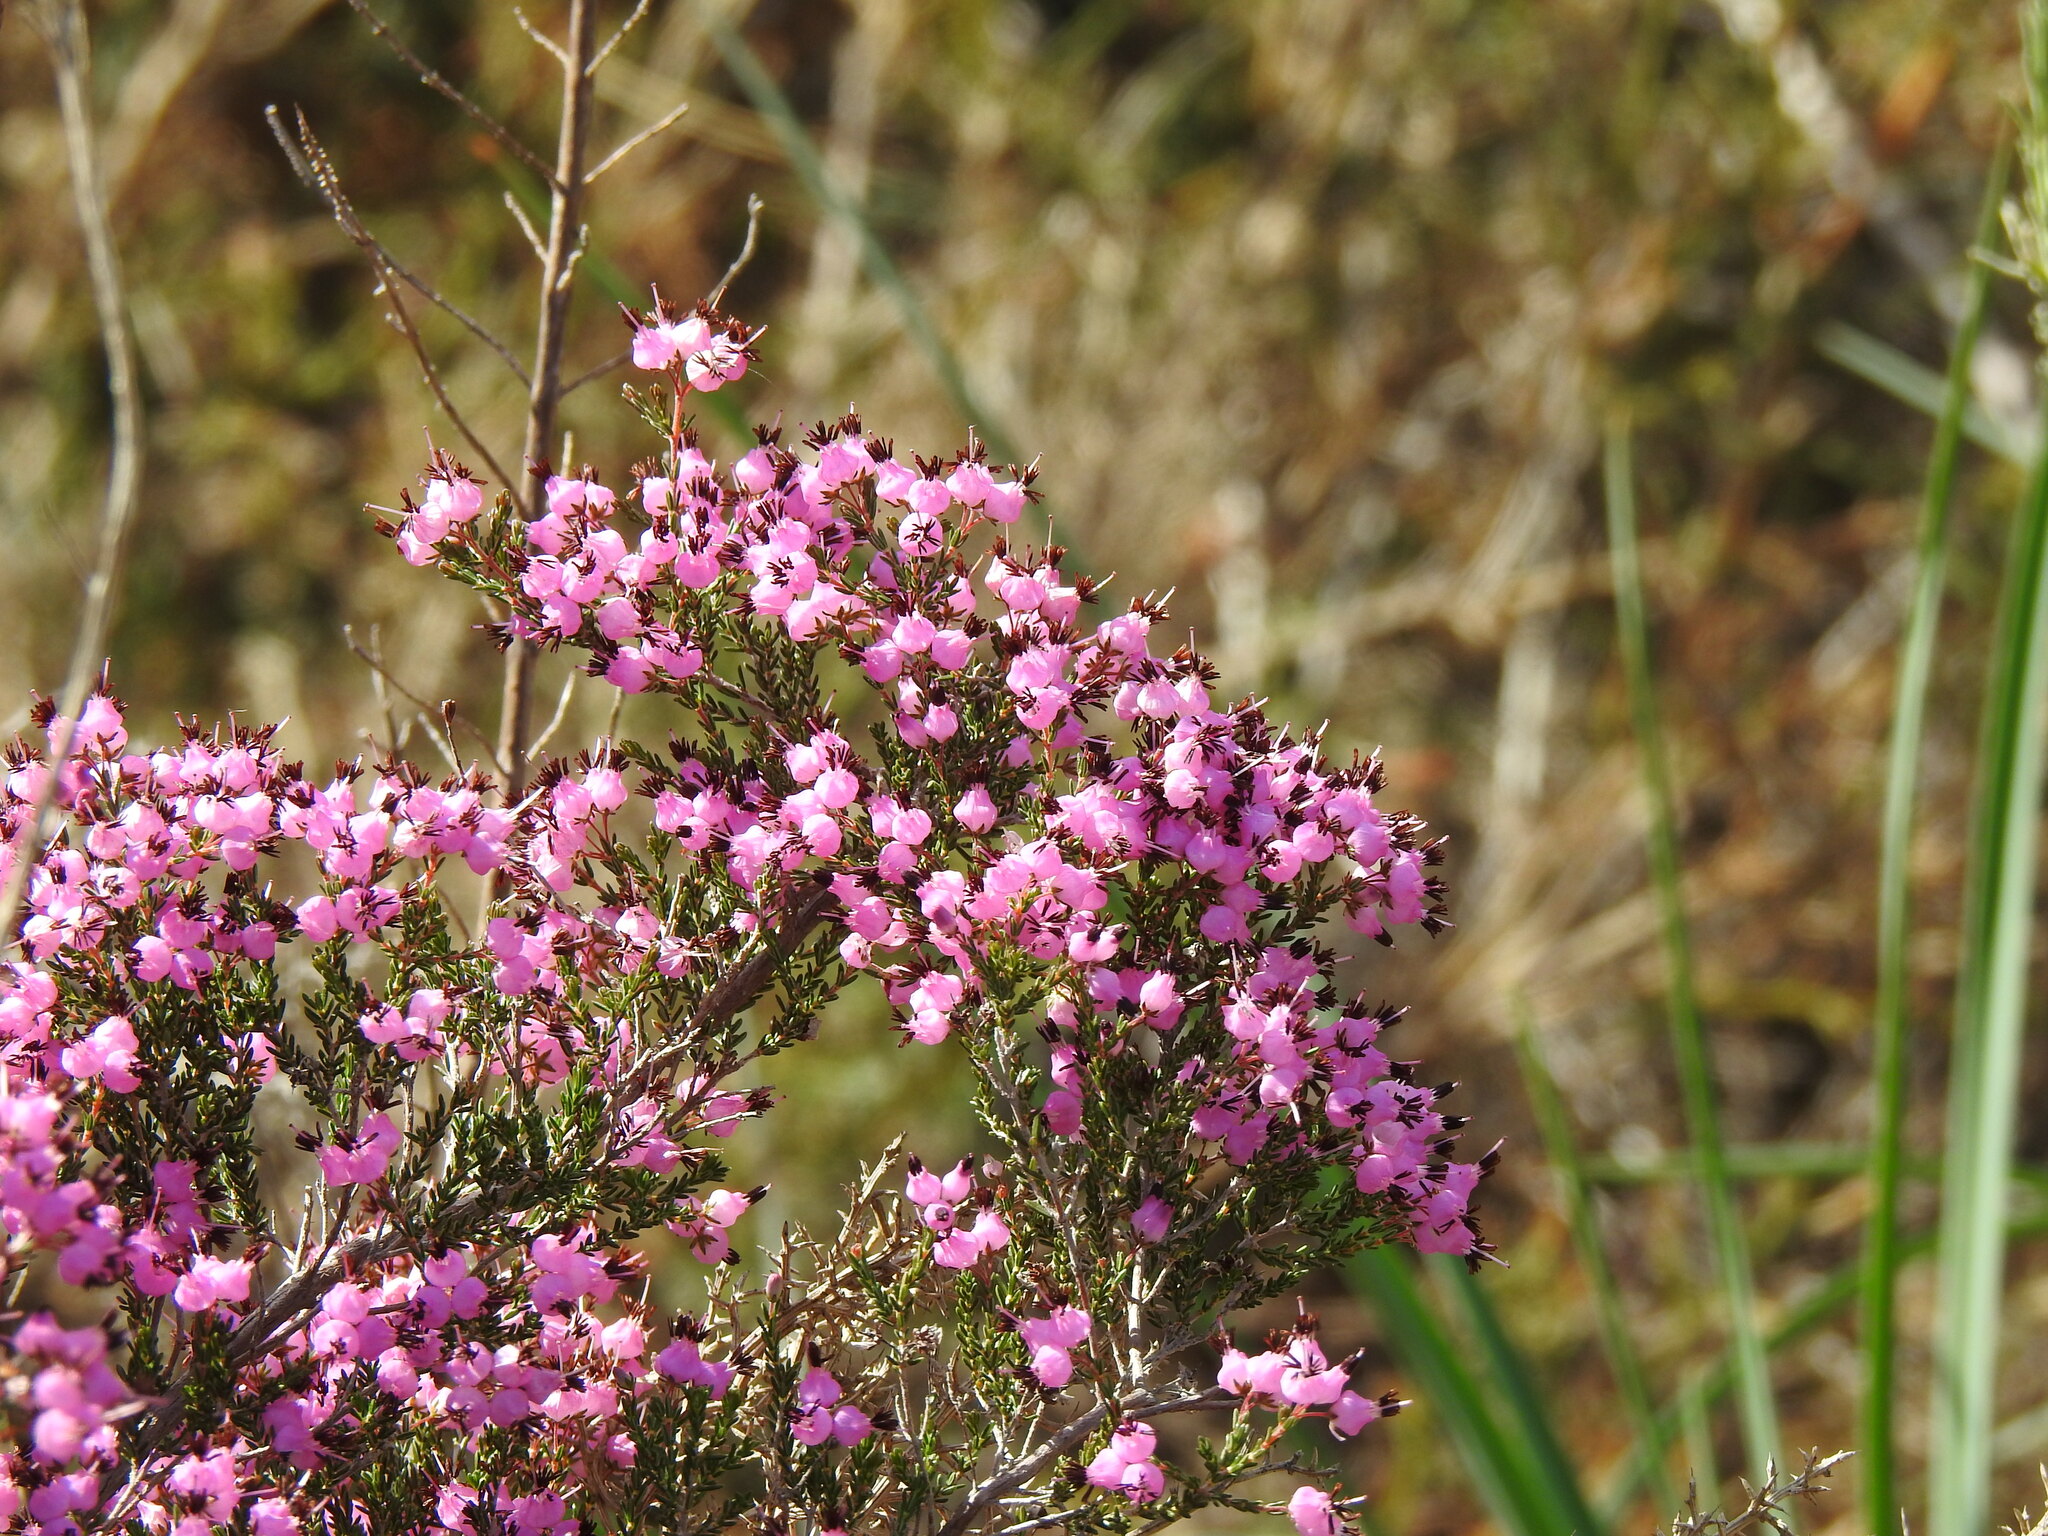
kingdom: Plantae
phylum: Tracheophyta
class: Magnoliopsida
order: Ericales
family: Ericaceae
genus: Erica
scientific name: Erica umbellata
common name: Dwarf spanish heath
